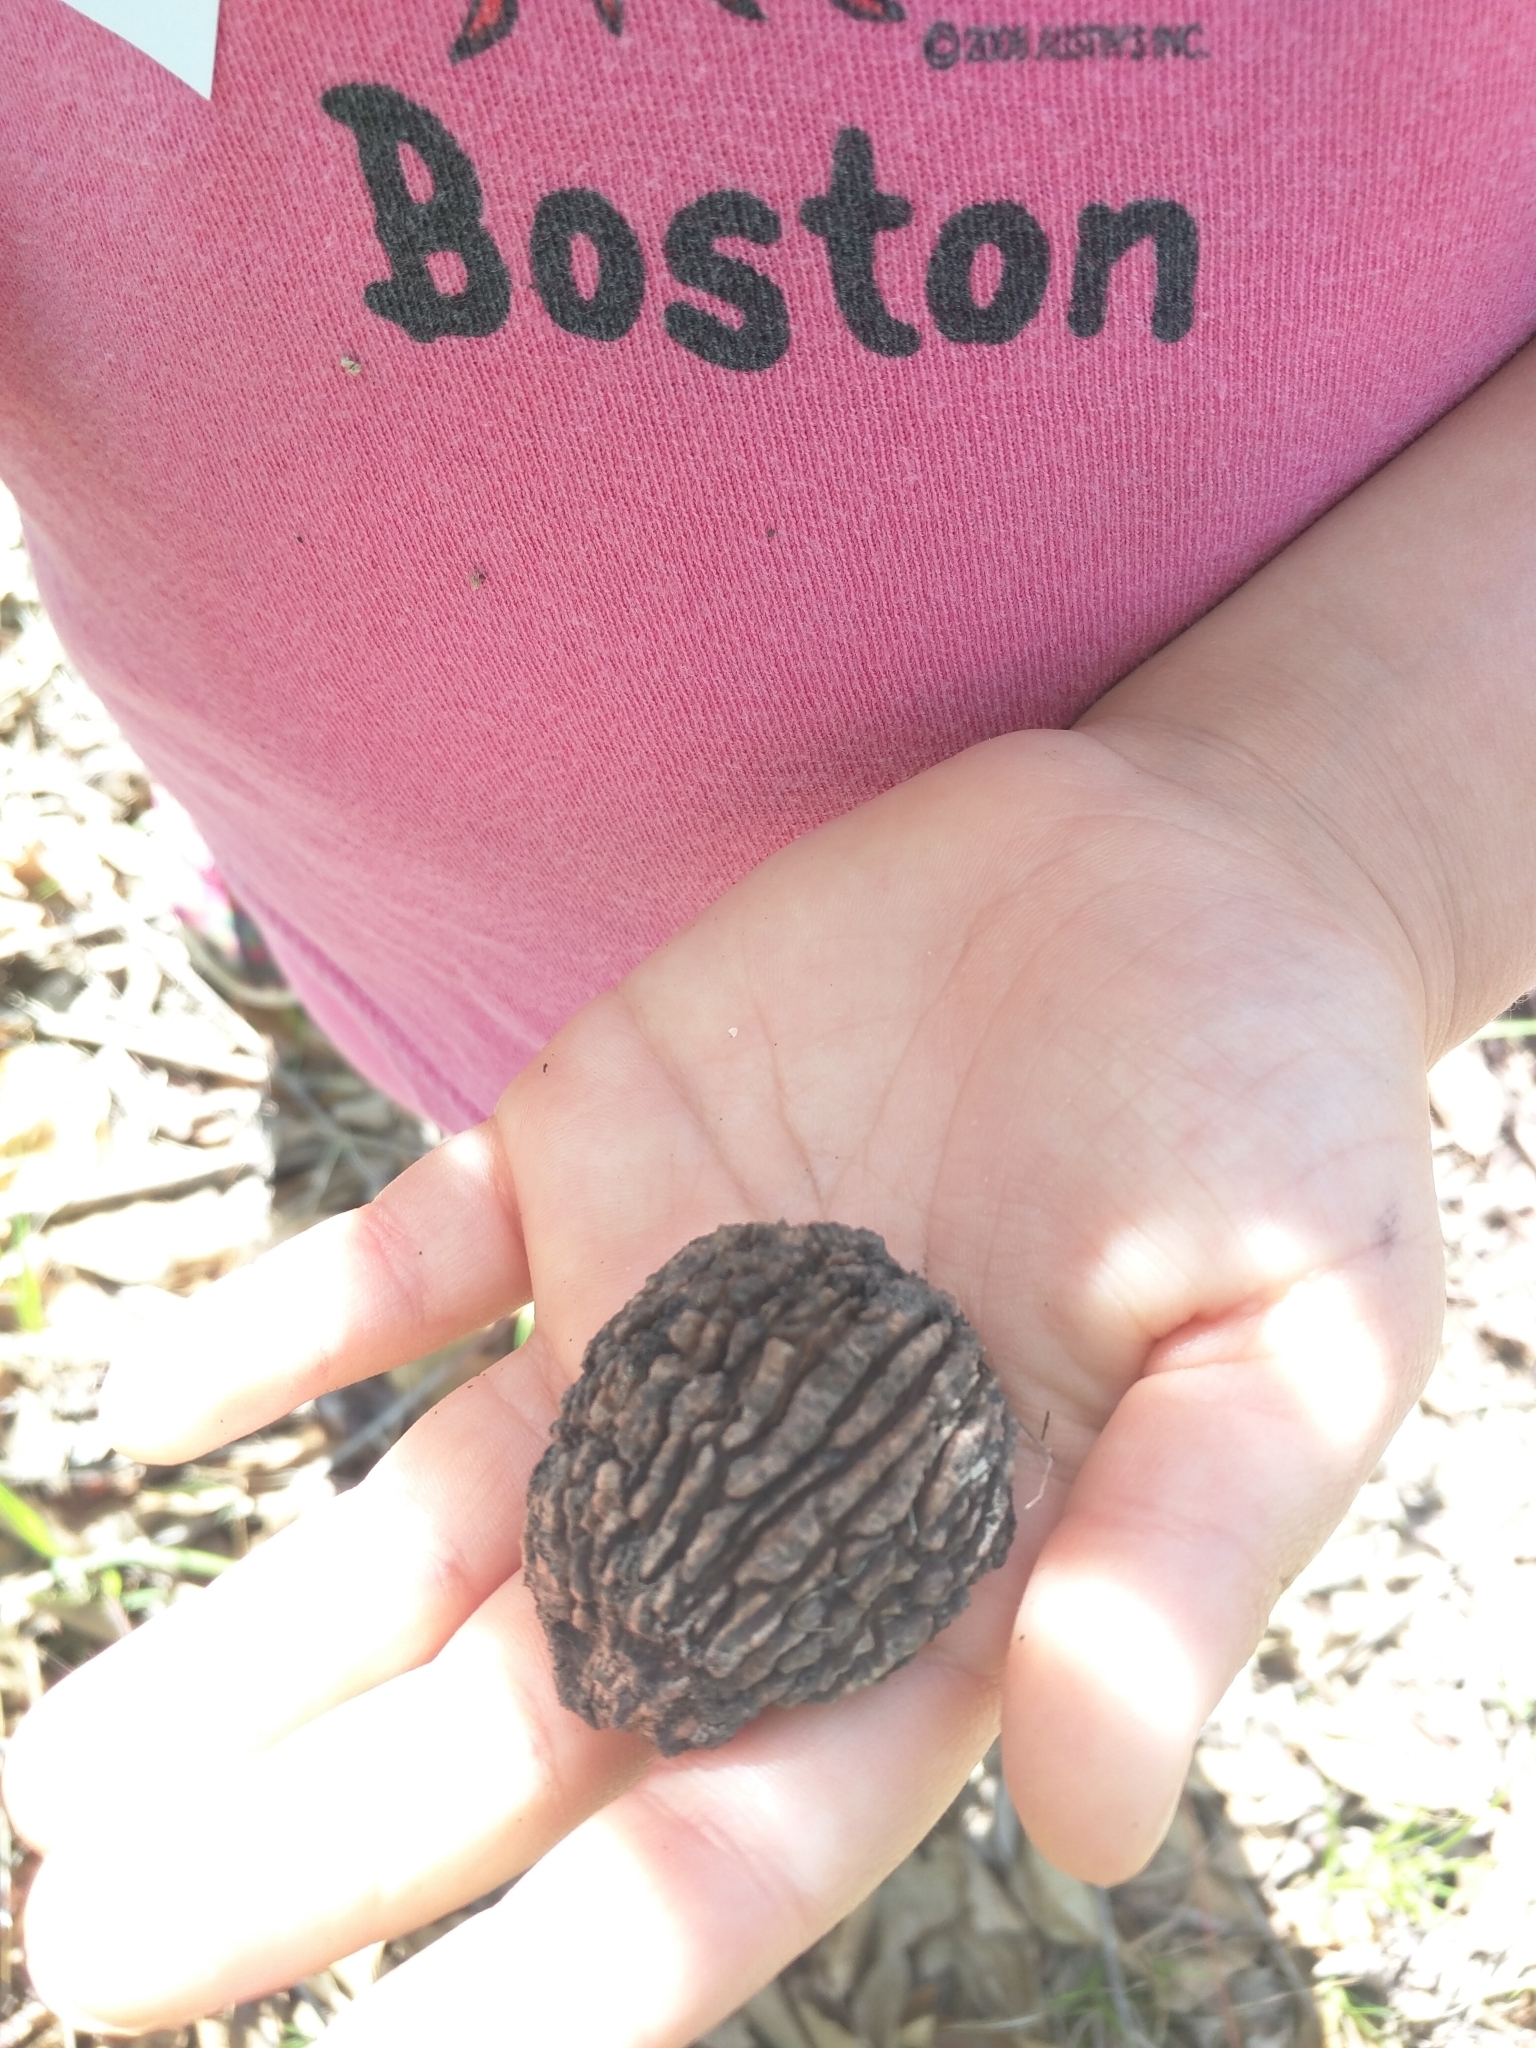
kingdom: Plantae
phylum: Tracheophyta
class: Magnoliopsida
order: Fagales
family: Juglandaceae
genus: Juglans
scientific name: Juglans nigra
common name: Black walnut
